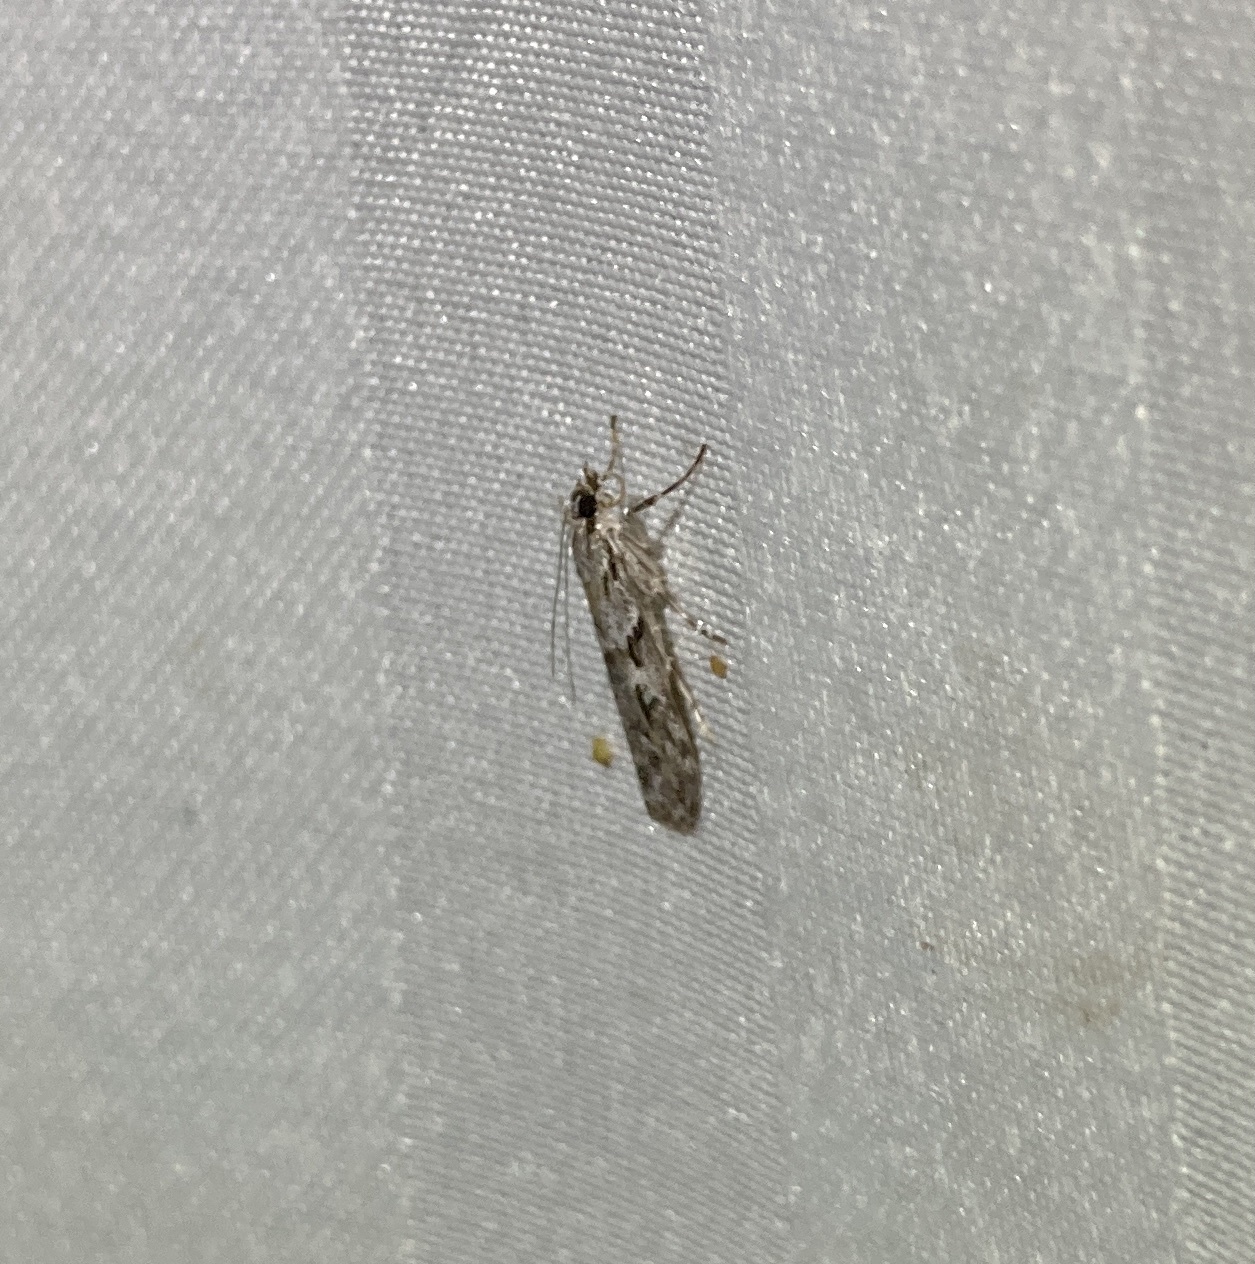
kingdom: Animalia
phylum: Arthropoda
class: Insecta
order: Lepidoptera
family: Crambidae
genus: Scoparia
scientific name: Scoparia halopis
